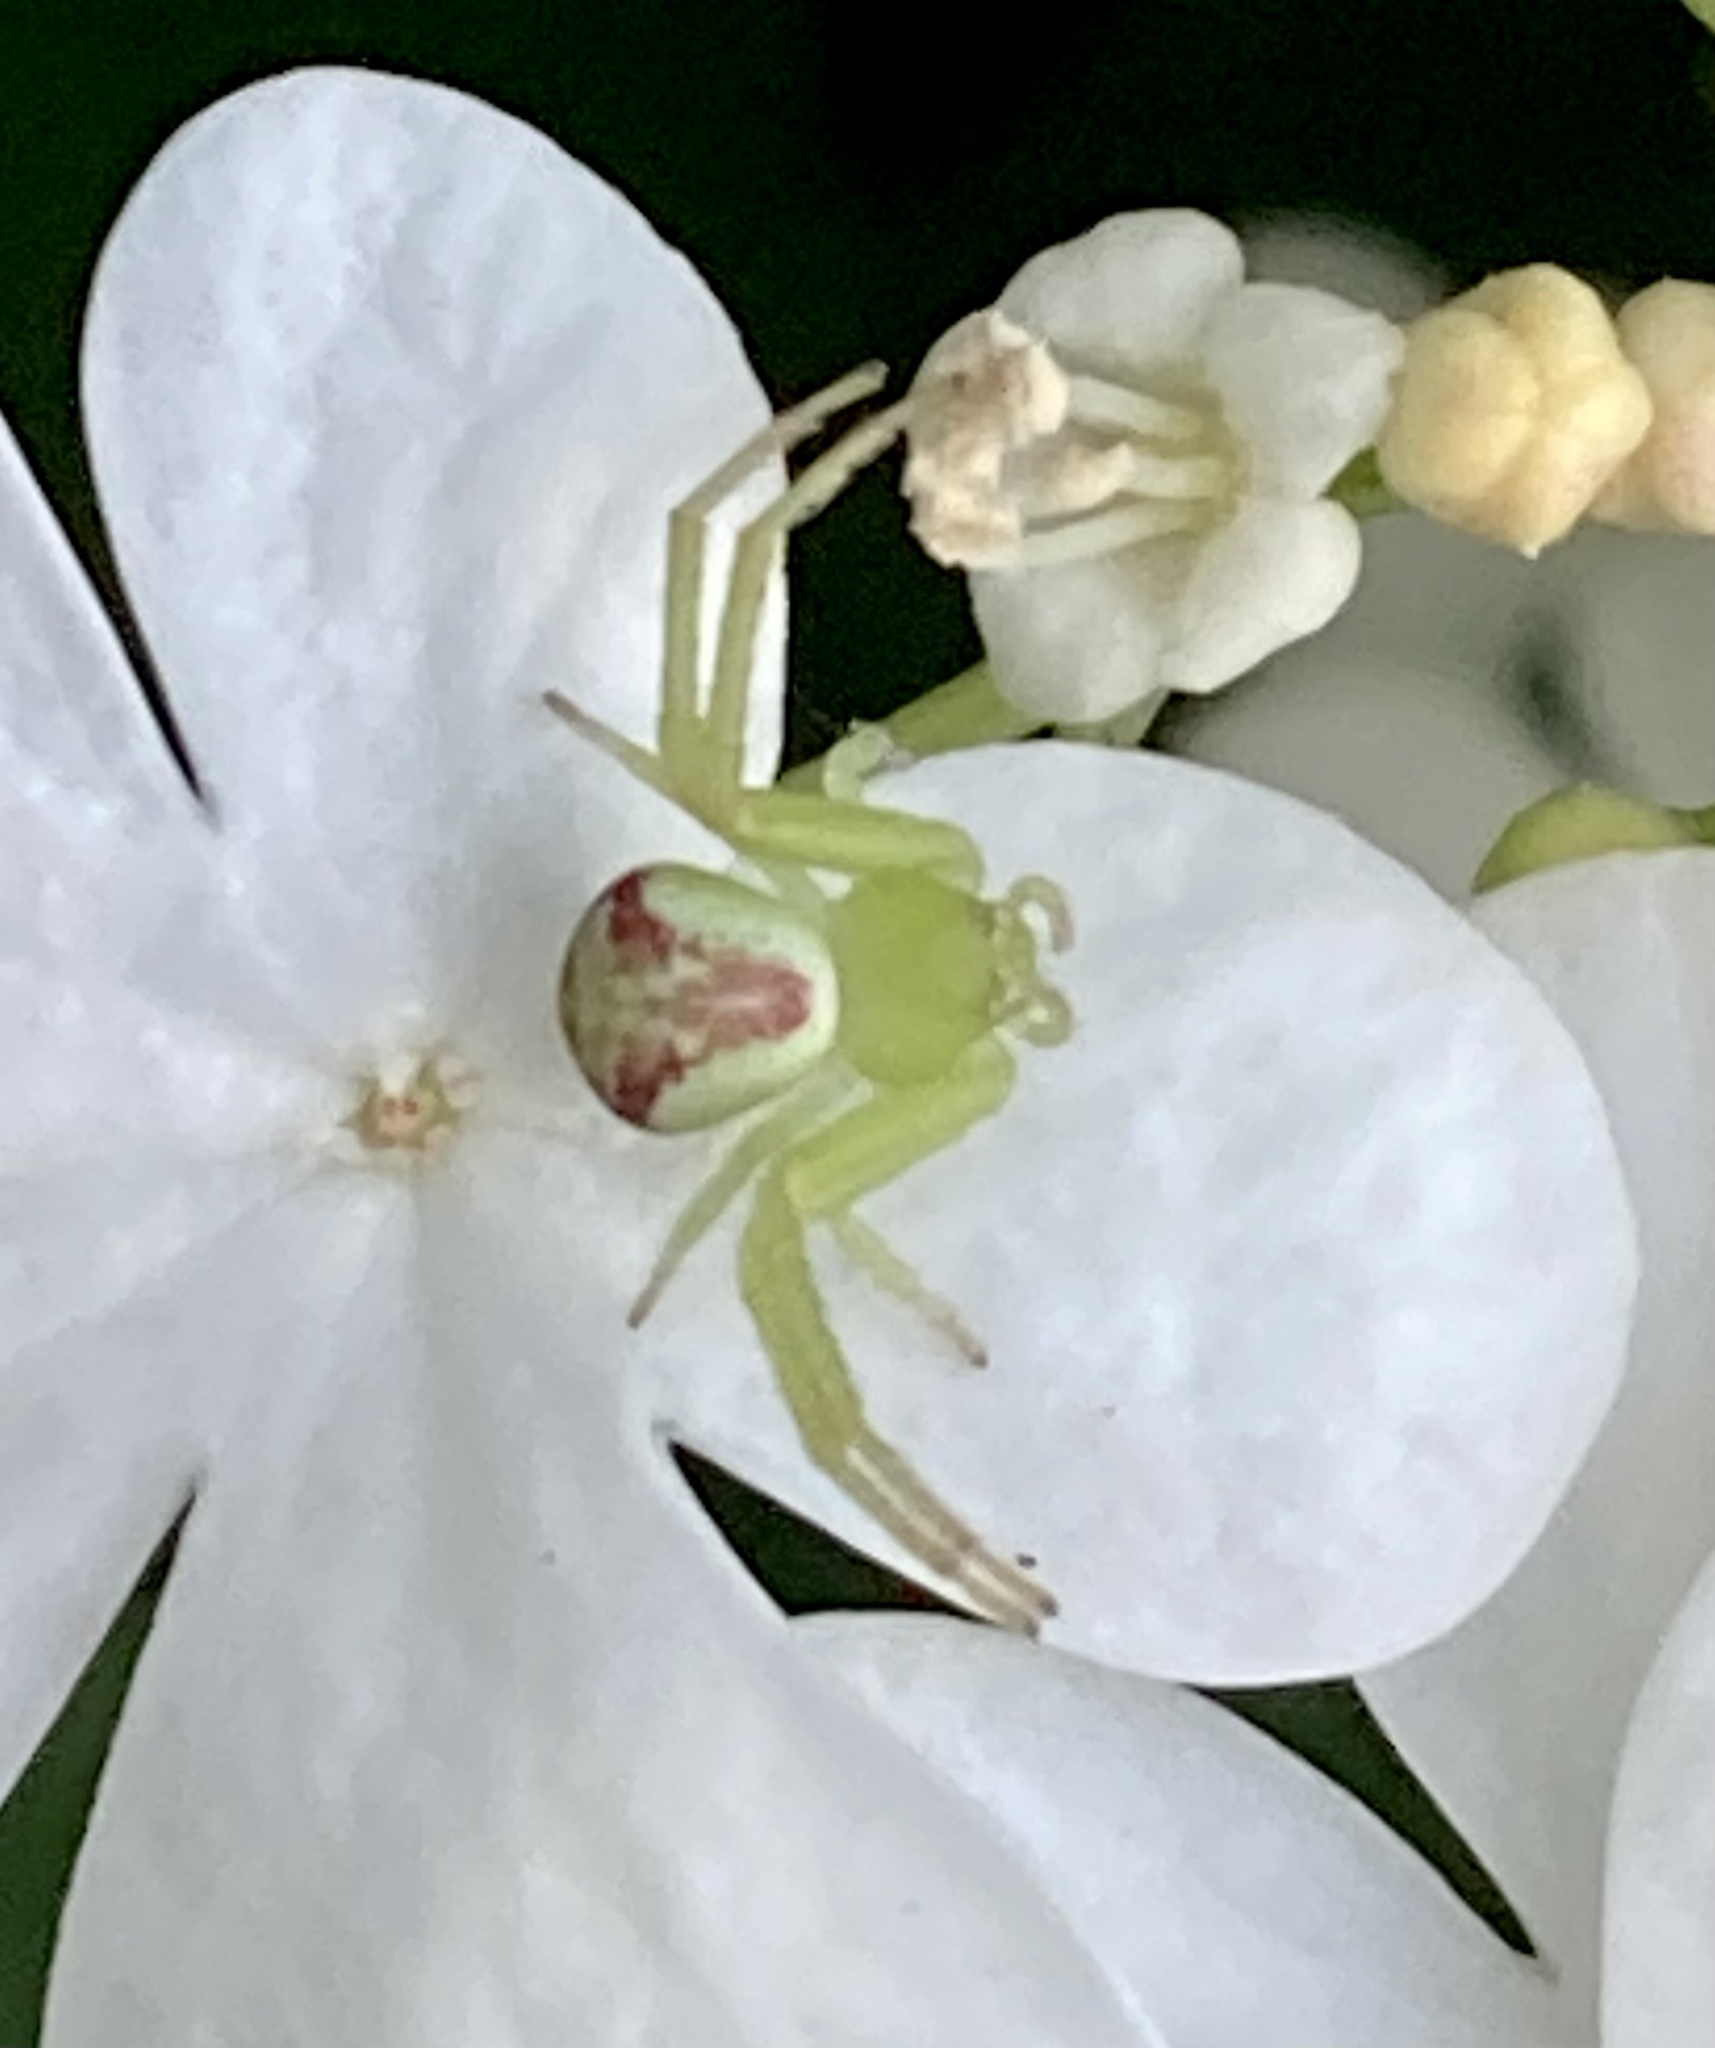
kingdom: Animalia
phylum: Arthropoda
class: Arachnida
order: Araneae
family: Thomisidae
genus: Ebrechtella
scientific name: Ebrechtella tricuspidata
